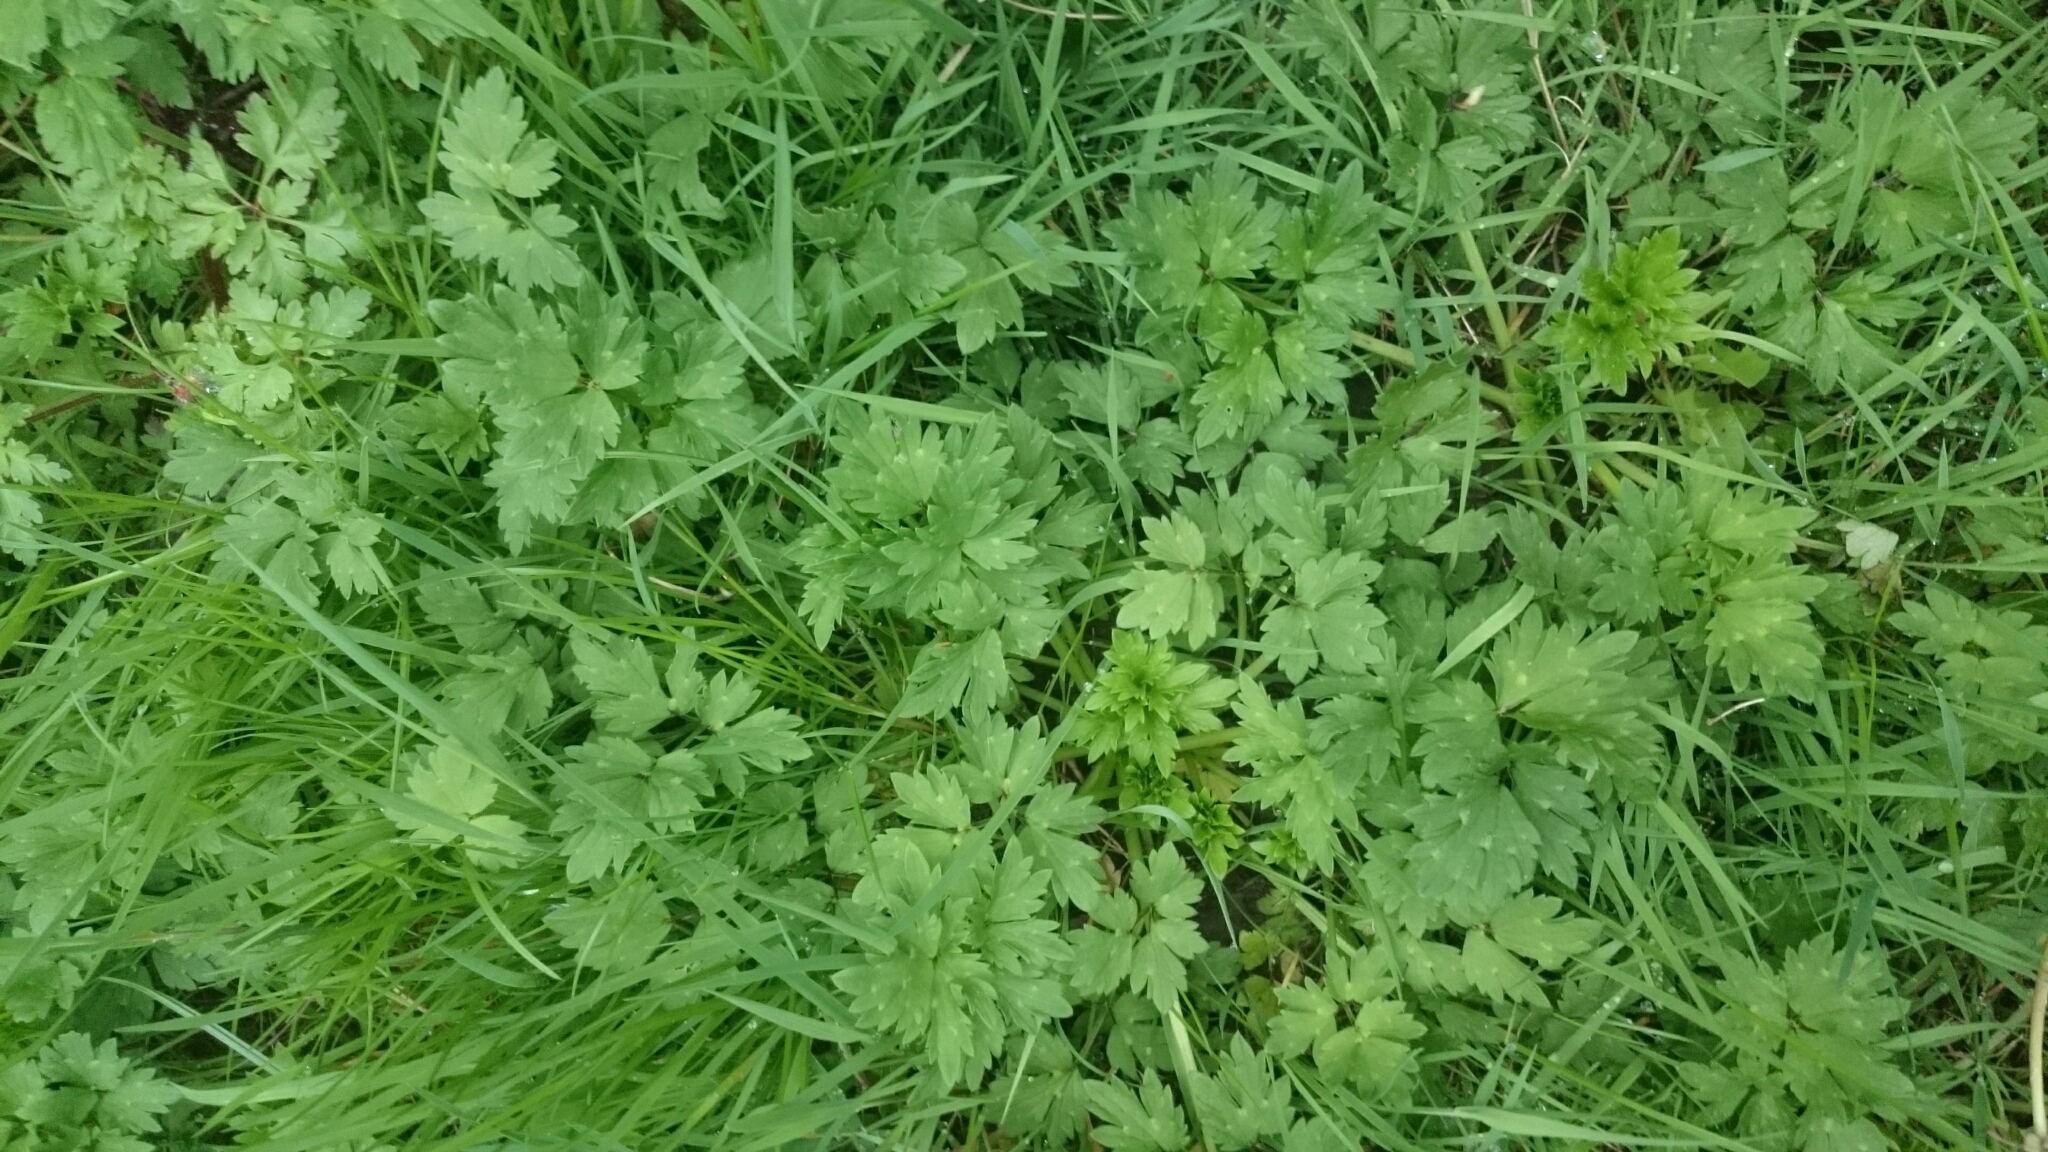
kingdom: Plantae
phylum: Tracheophyta
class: Magnoliopsida
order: Ranunculales
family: Ranunculaceae
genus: Ranunculus
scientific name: Ranunculus repens
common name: Creeping buttercup
